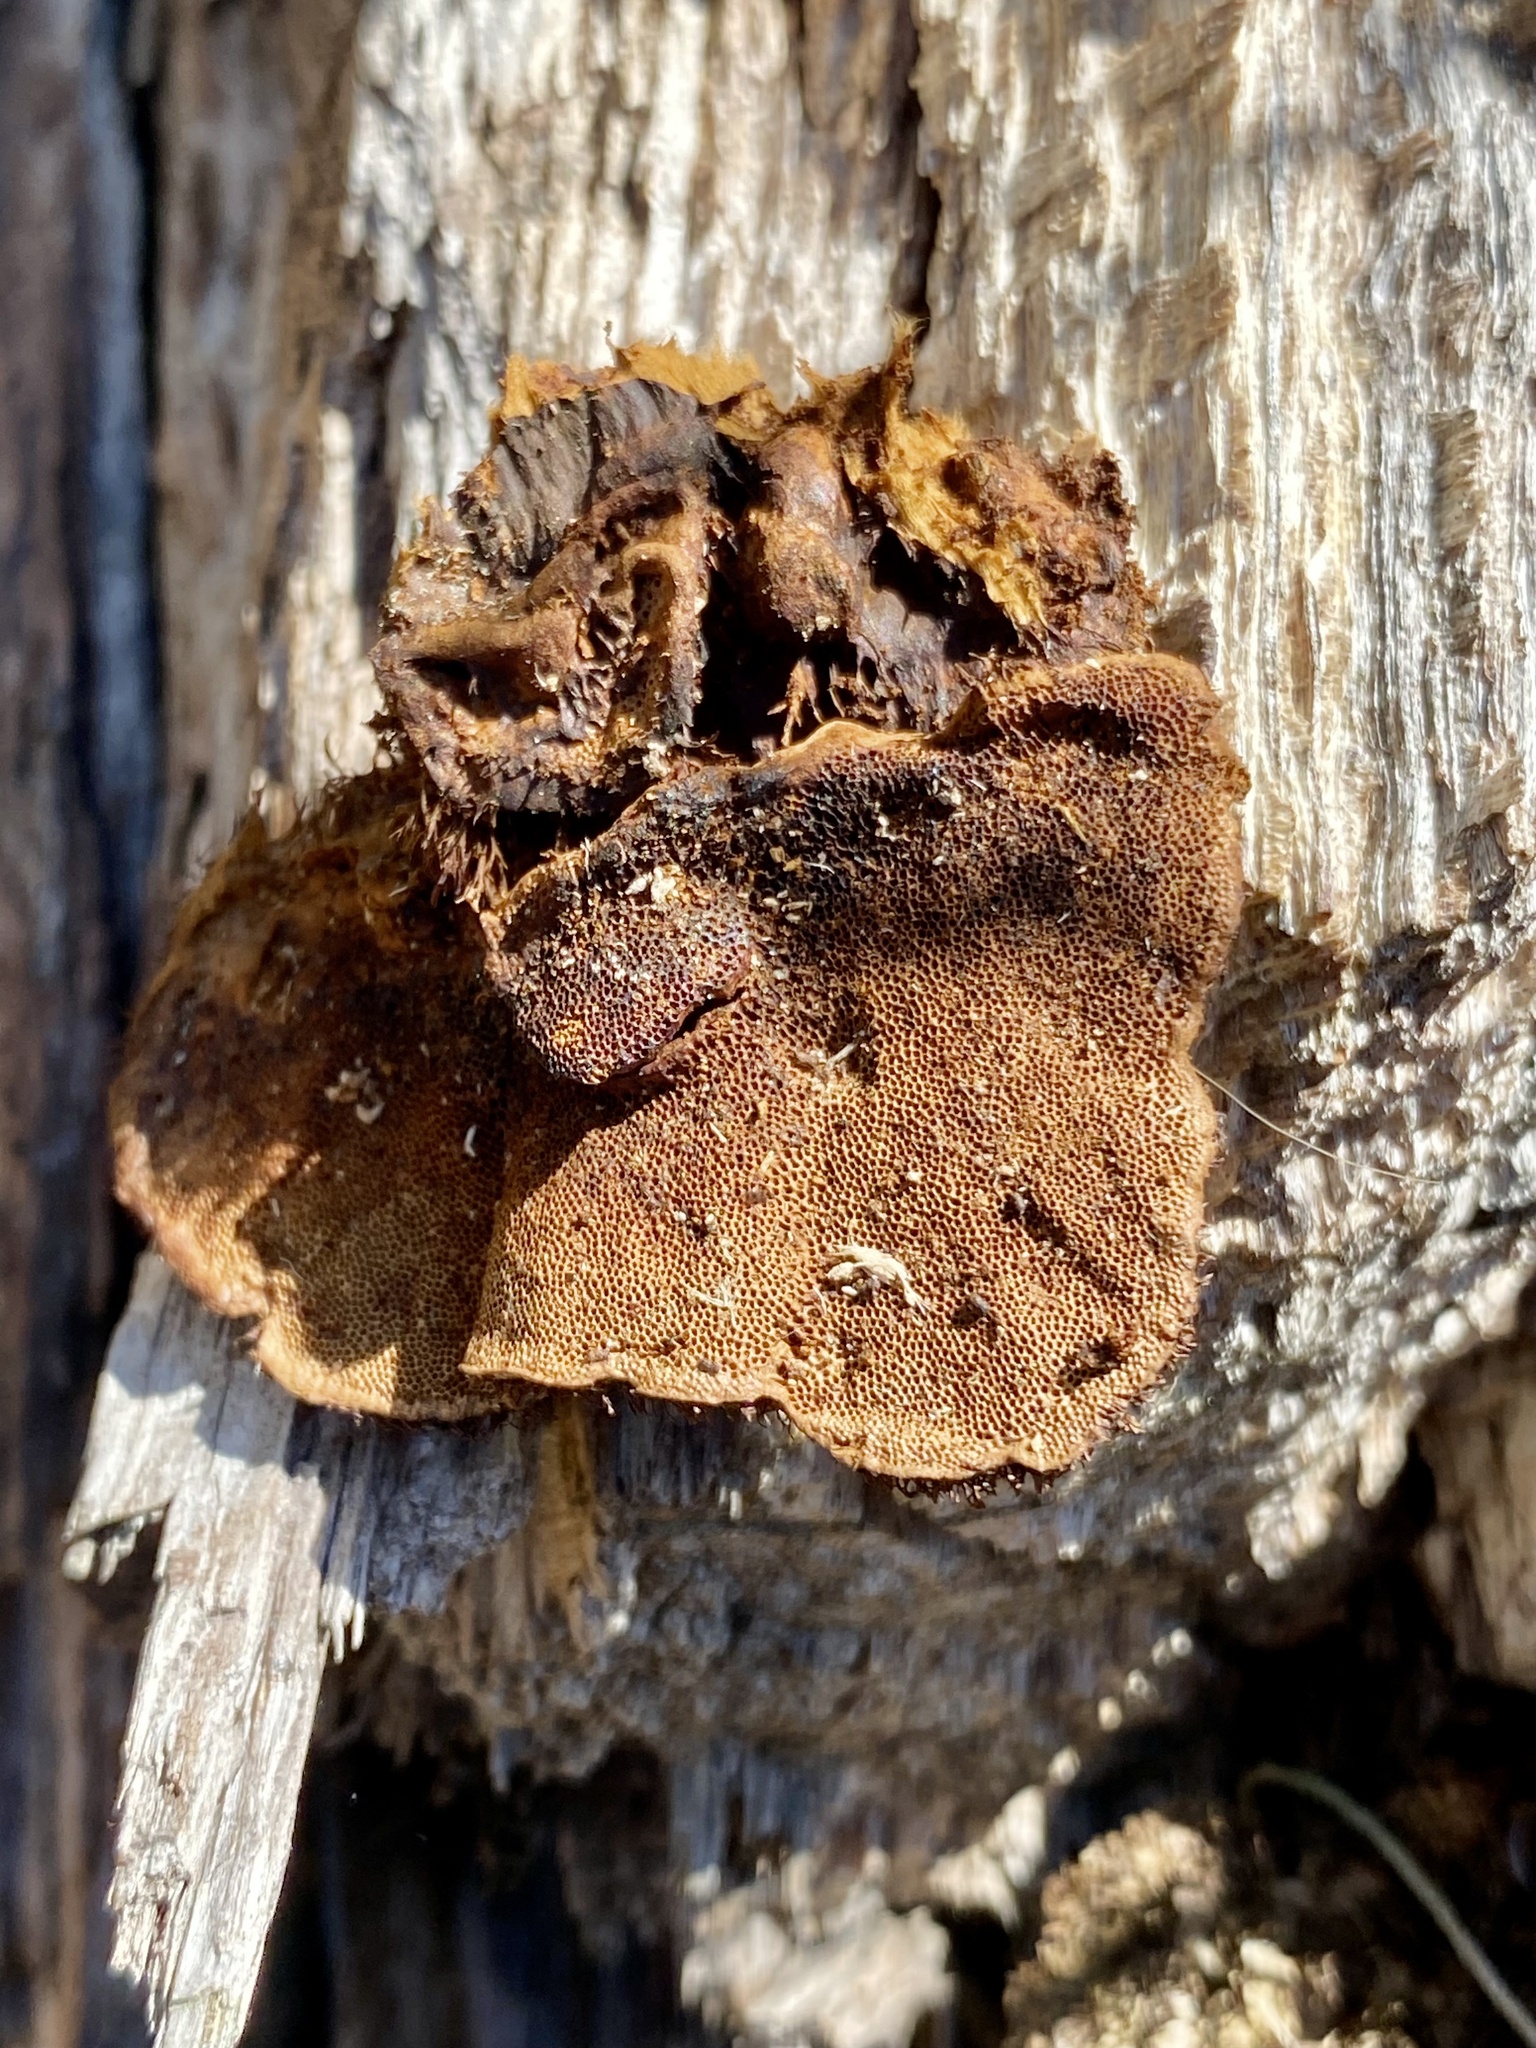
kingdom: Fungi
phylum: Basidiomycota
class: Agaricomycetes
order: Polyporales
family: Cerrenaceae
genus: Cerrena
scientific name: Cerrena hydnoides
